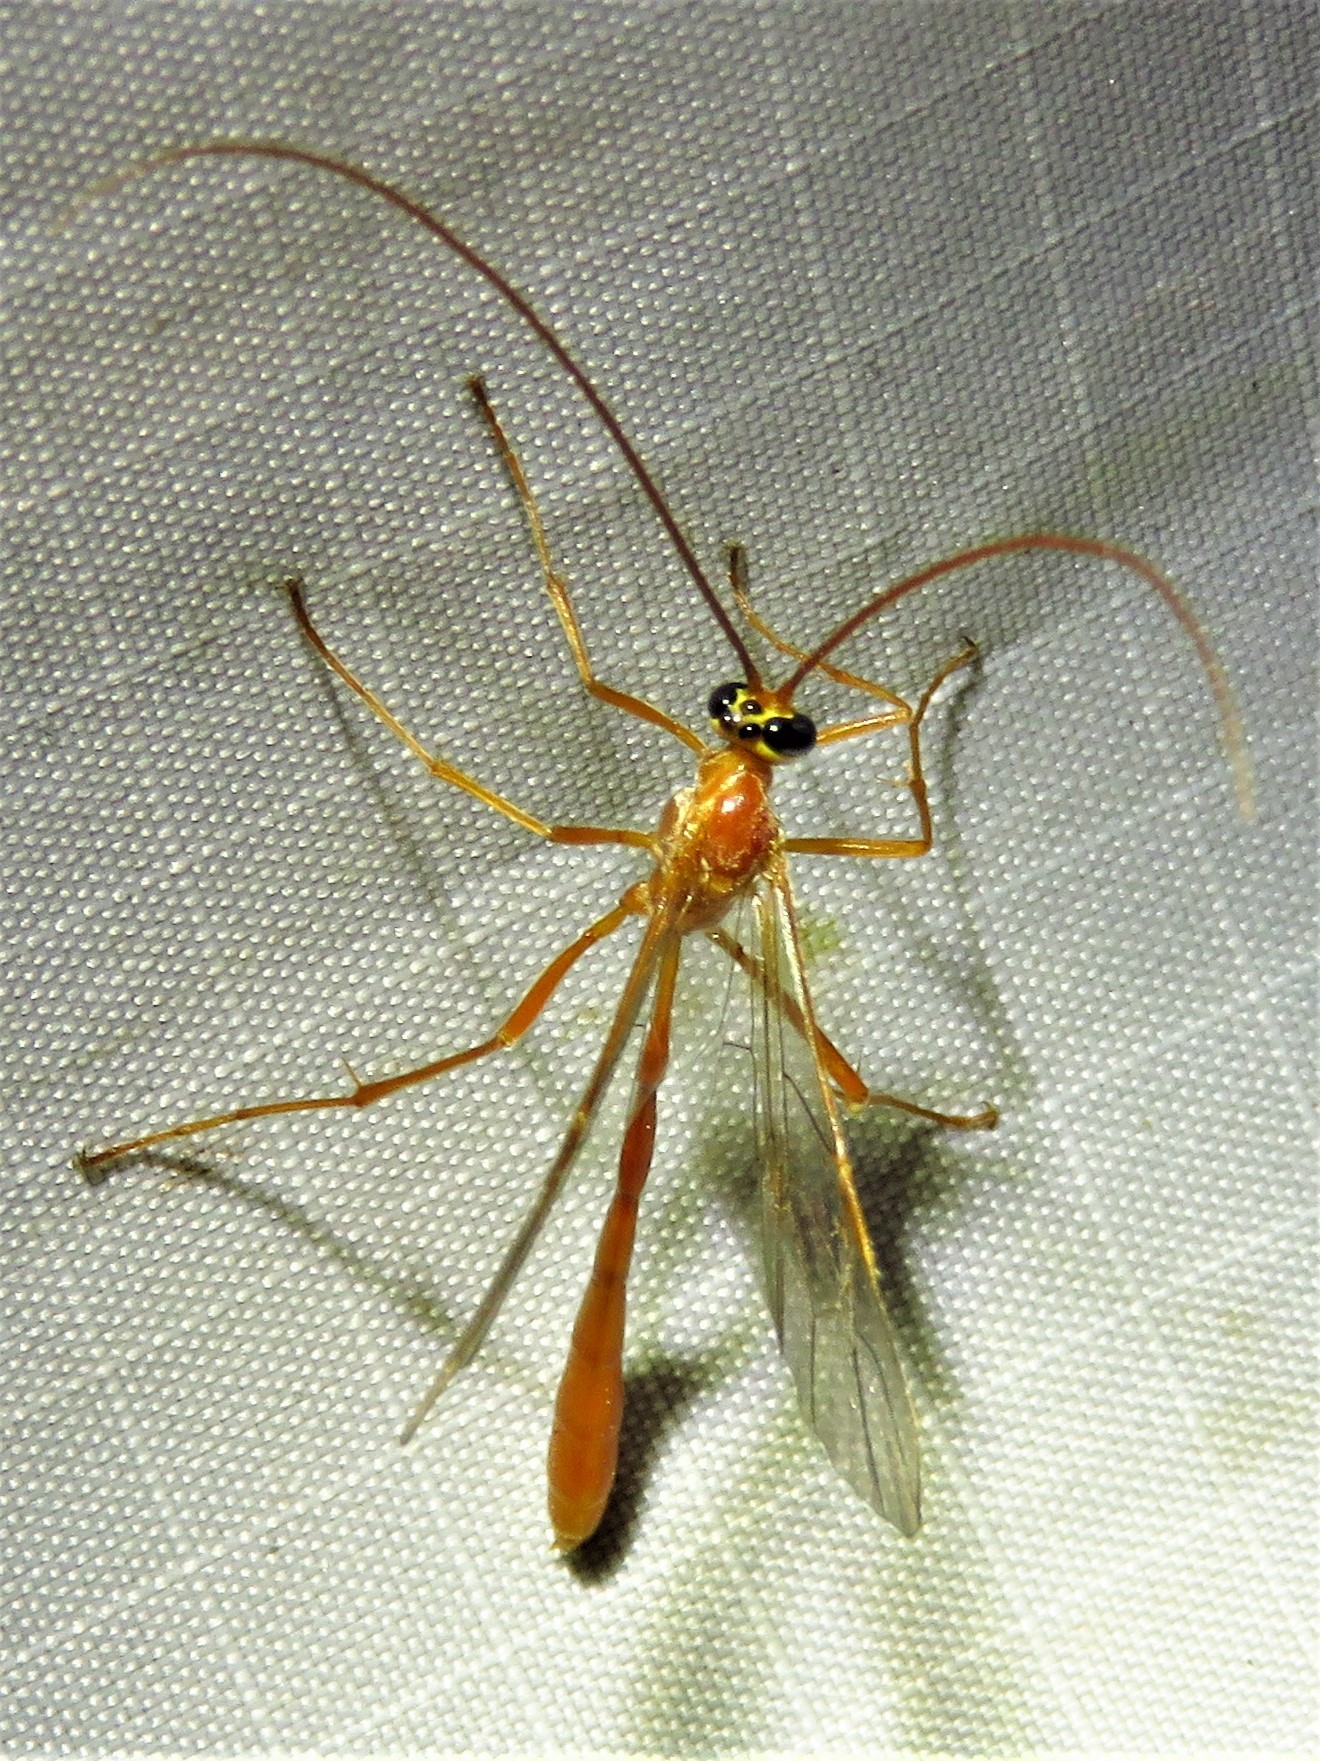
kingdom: Animalia
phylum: Arthropoda
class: Insecta
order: Hymenoptera
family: Ichneumonidae
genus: Enicospilus
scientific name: Enicospilus purgatus
